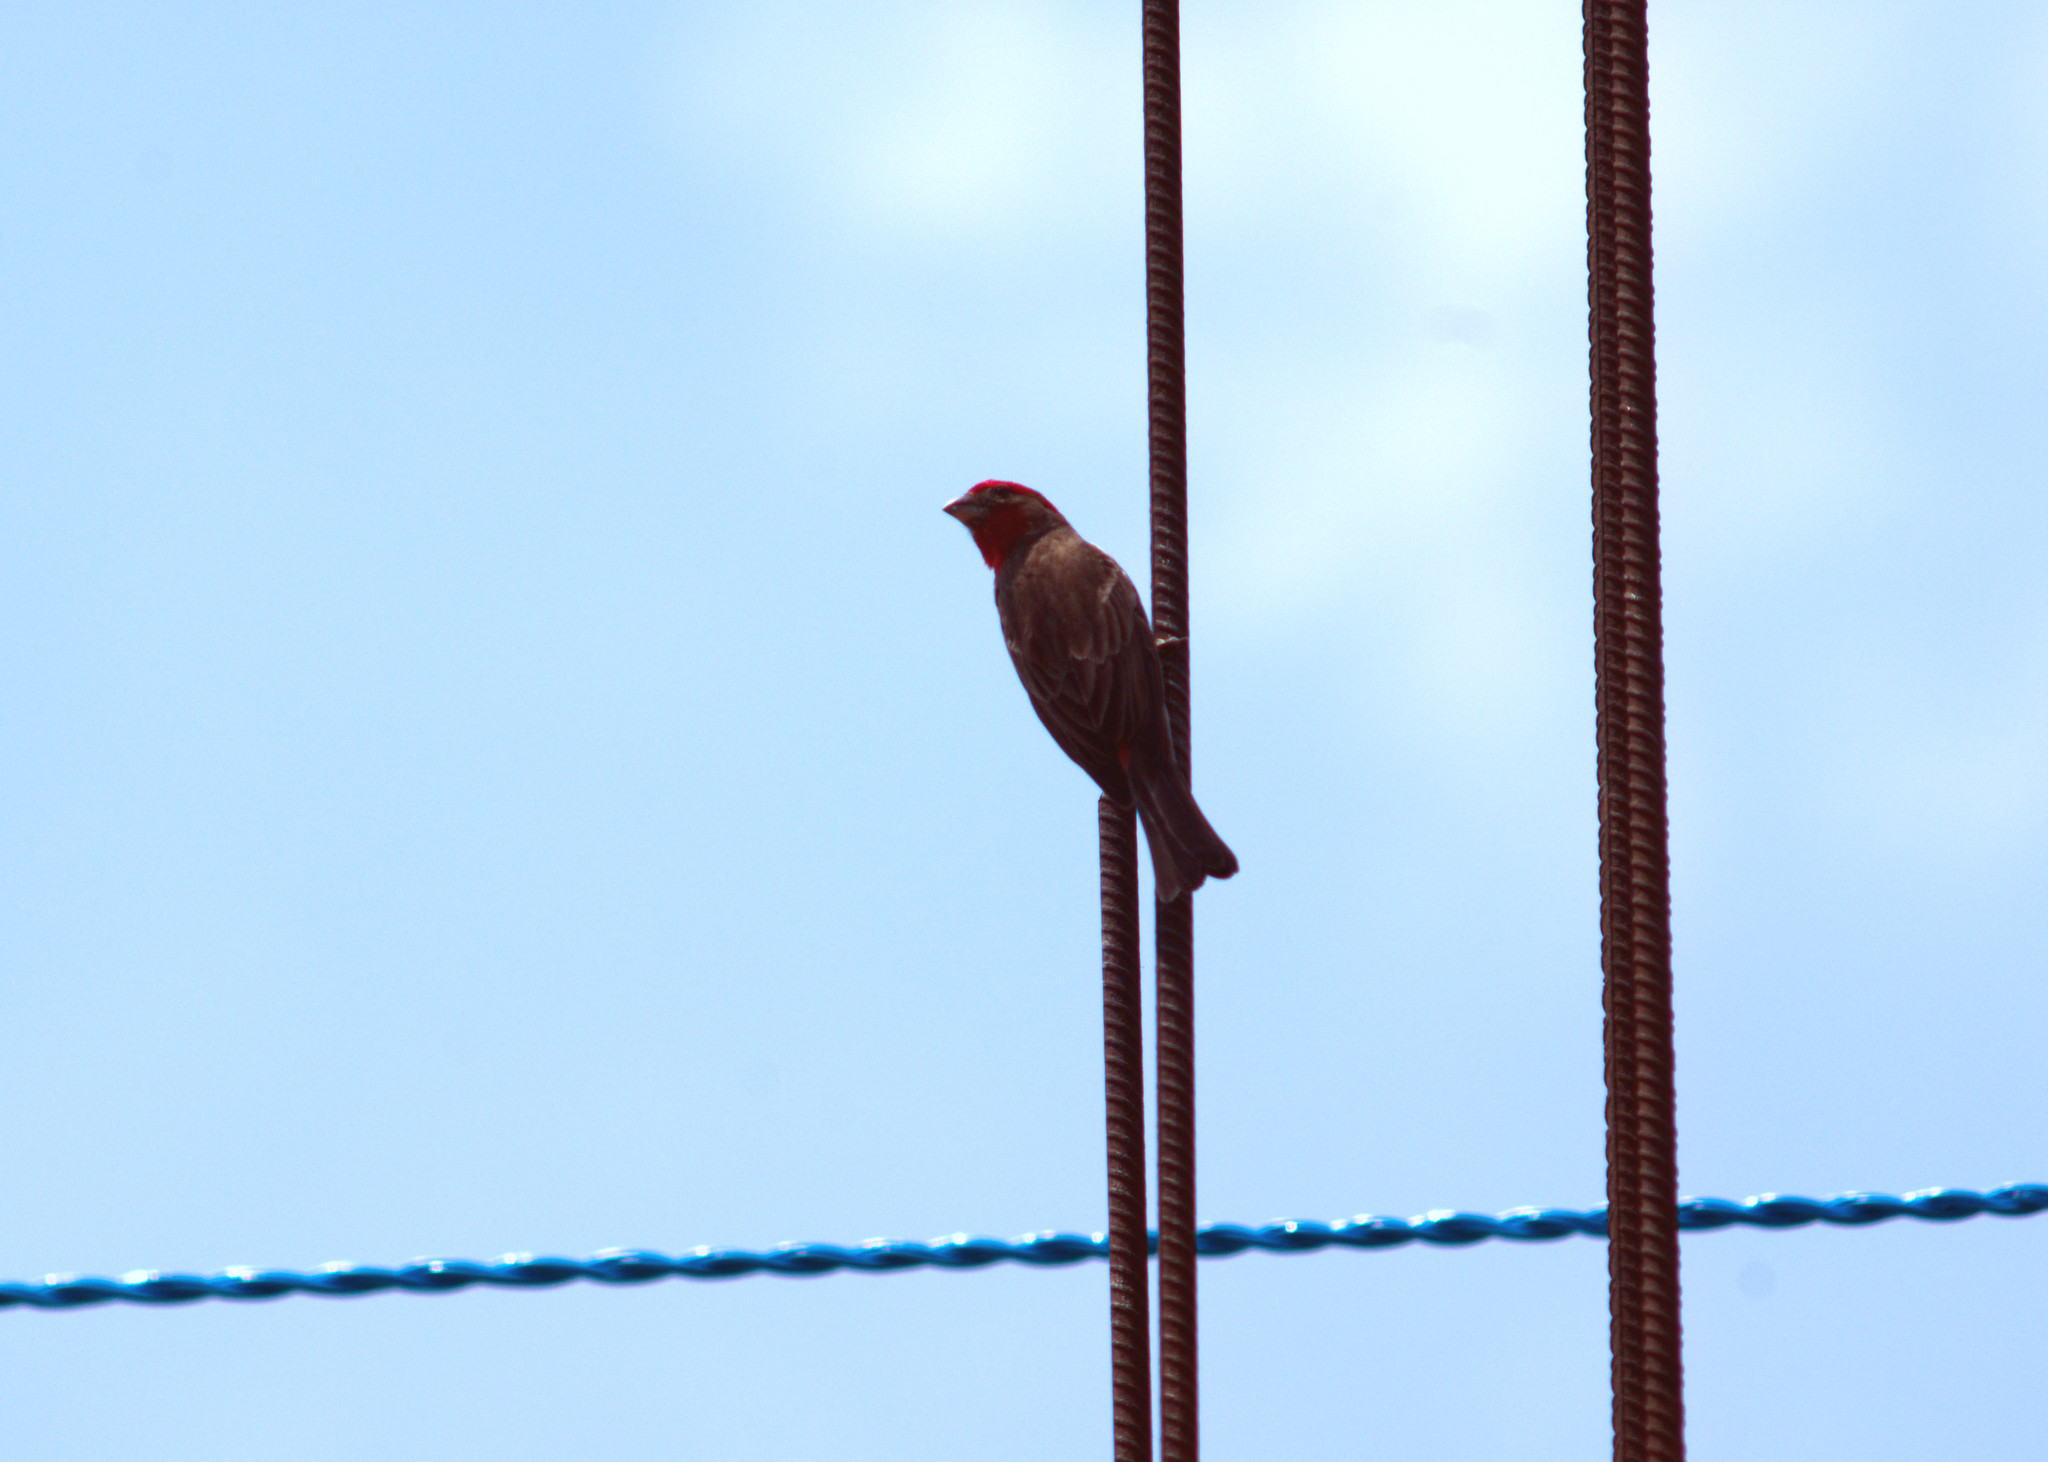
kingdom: Animalia
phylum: Chordata
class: Aves
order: Passeriformes
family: Fringillidae
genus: Haemorhous
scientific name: Haemorhous mexicanus
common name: House finch
